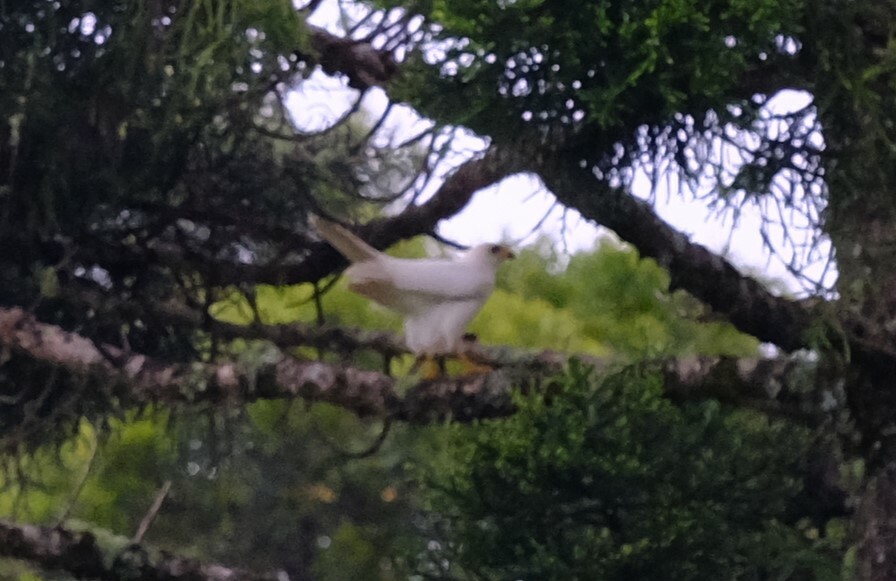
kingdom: Animalia
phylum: Chordata
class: Aves
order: Accipitriformes
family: Accipitridae
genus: Accipiter
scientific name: Accipiter novaehollandiae
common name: Grey goshawk
